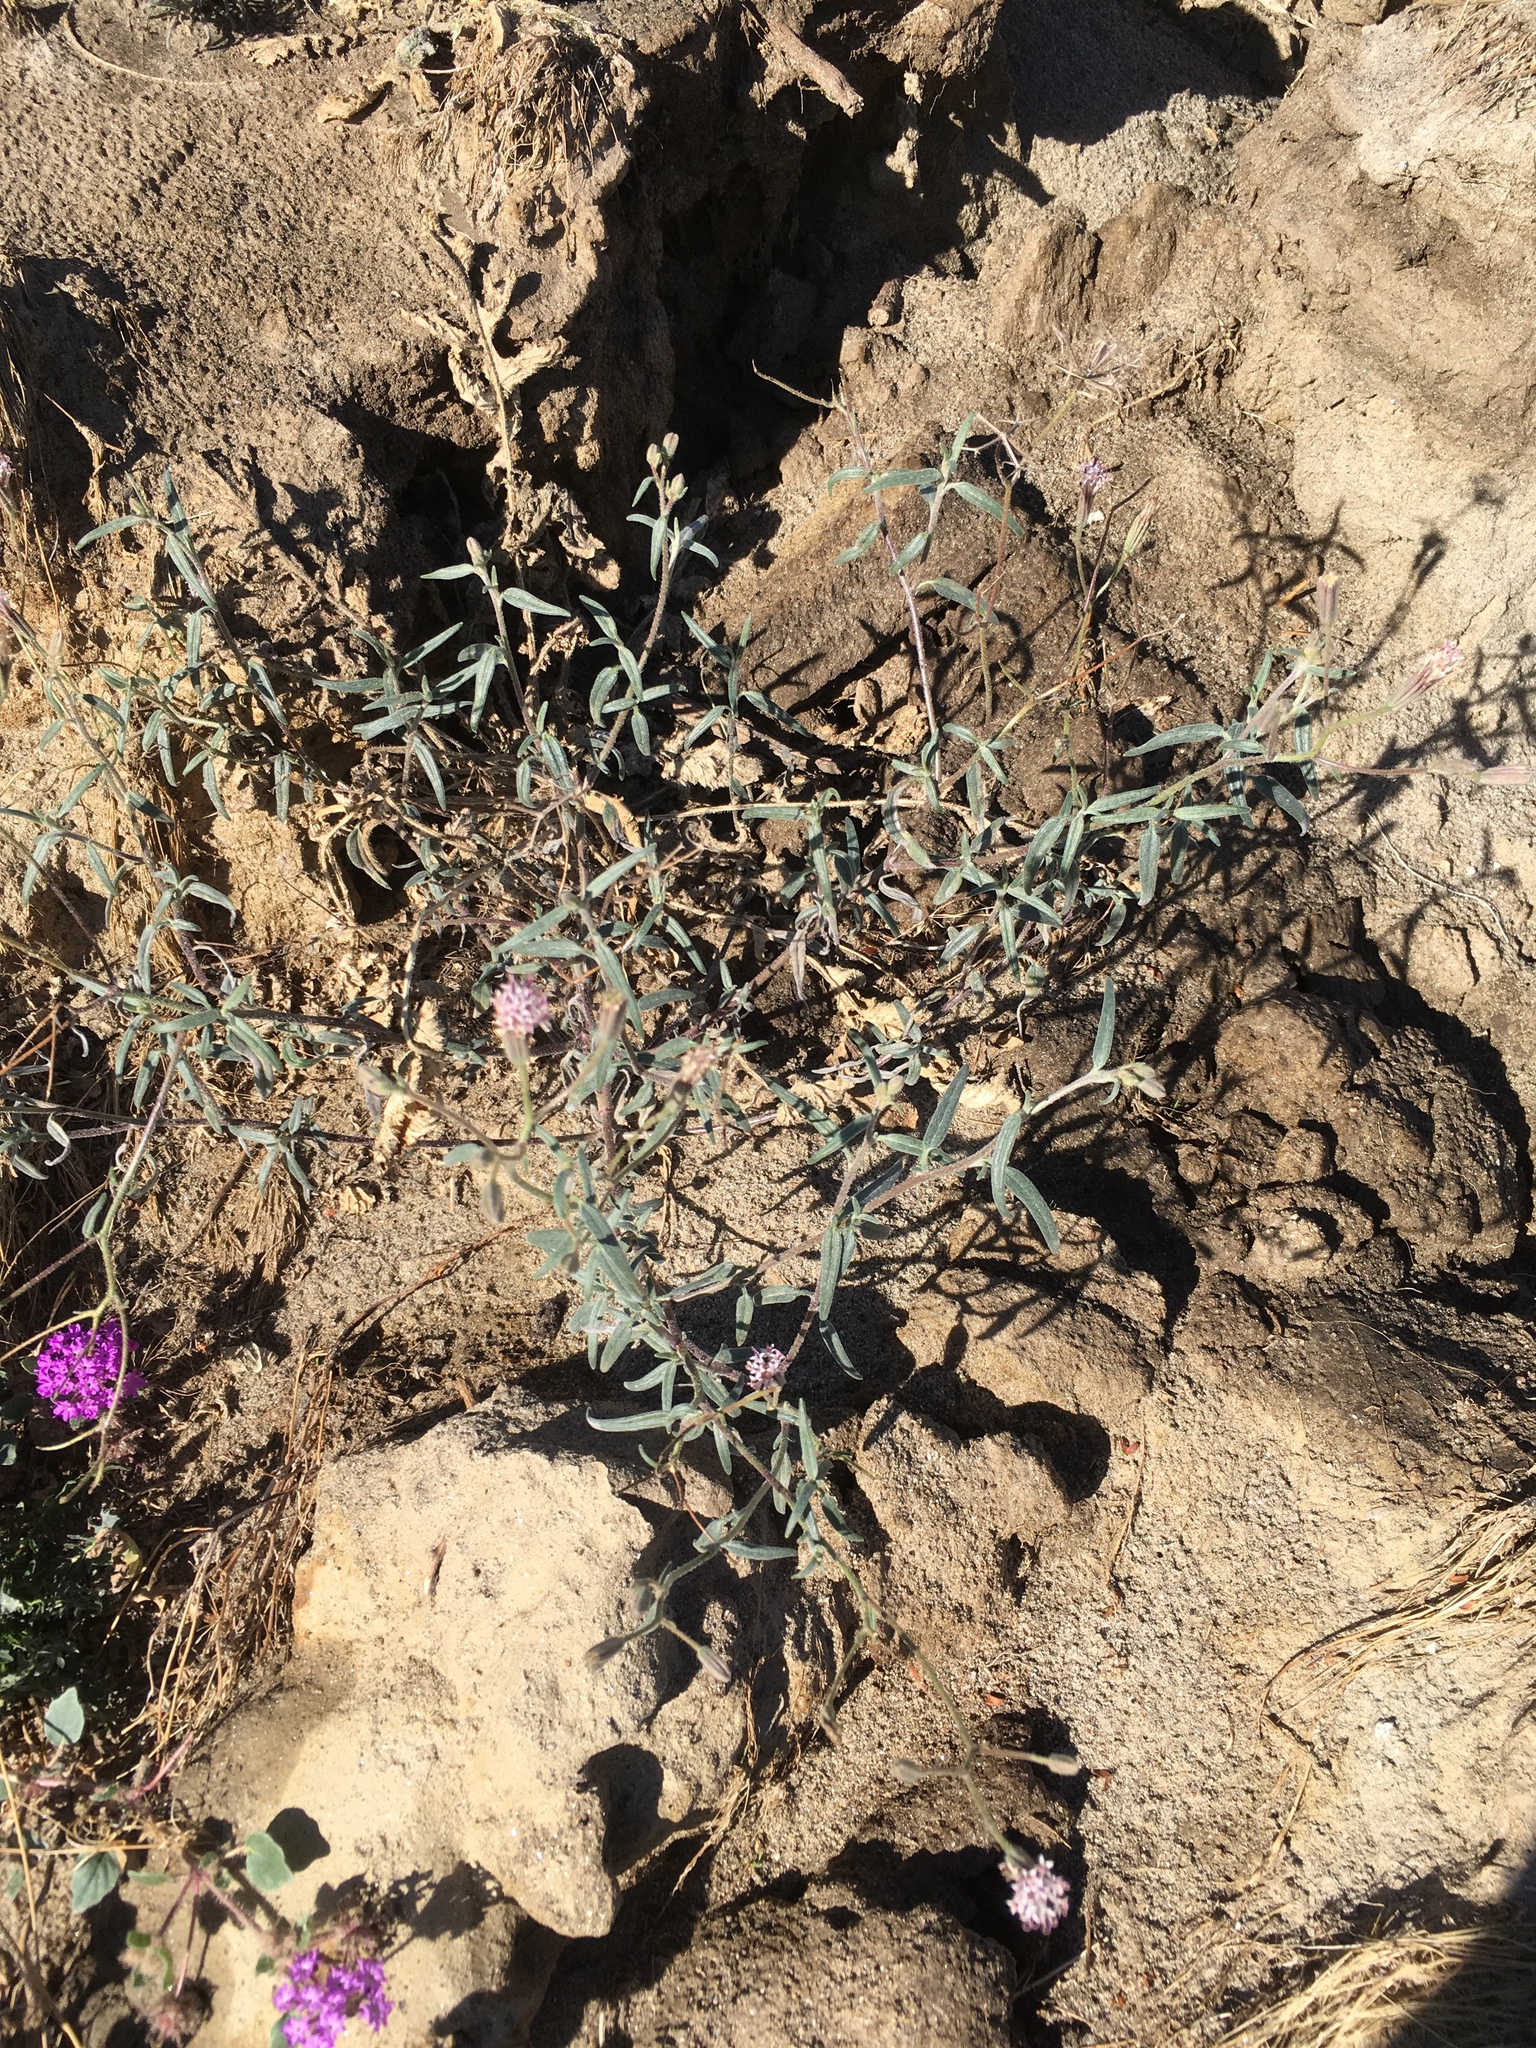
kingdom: Plantae
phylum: Tracheophyta
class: Magnoliopsida
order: Asterales
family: Asteraceae
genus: Palafoxia
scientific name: Palafoxia arida
